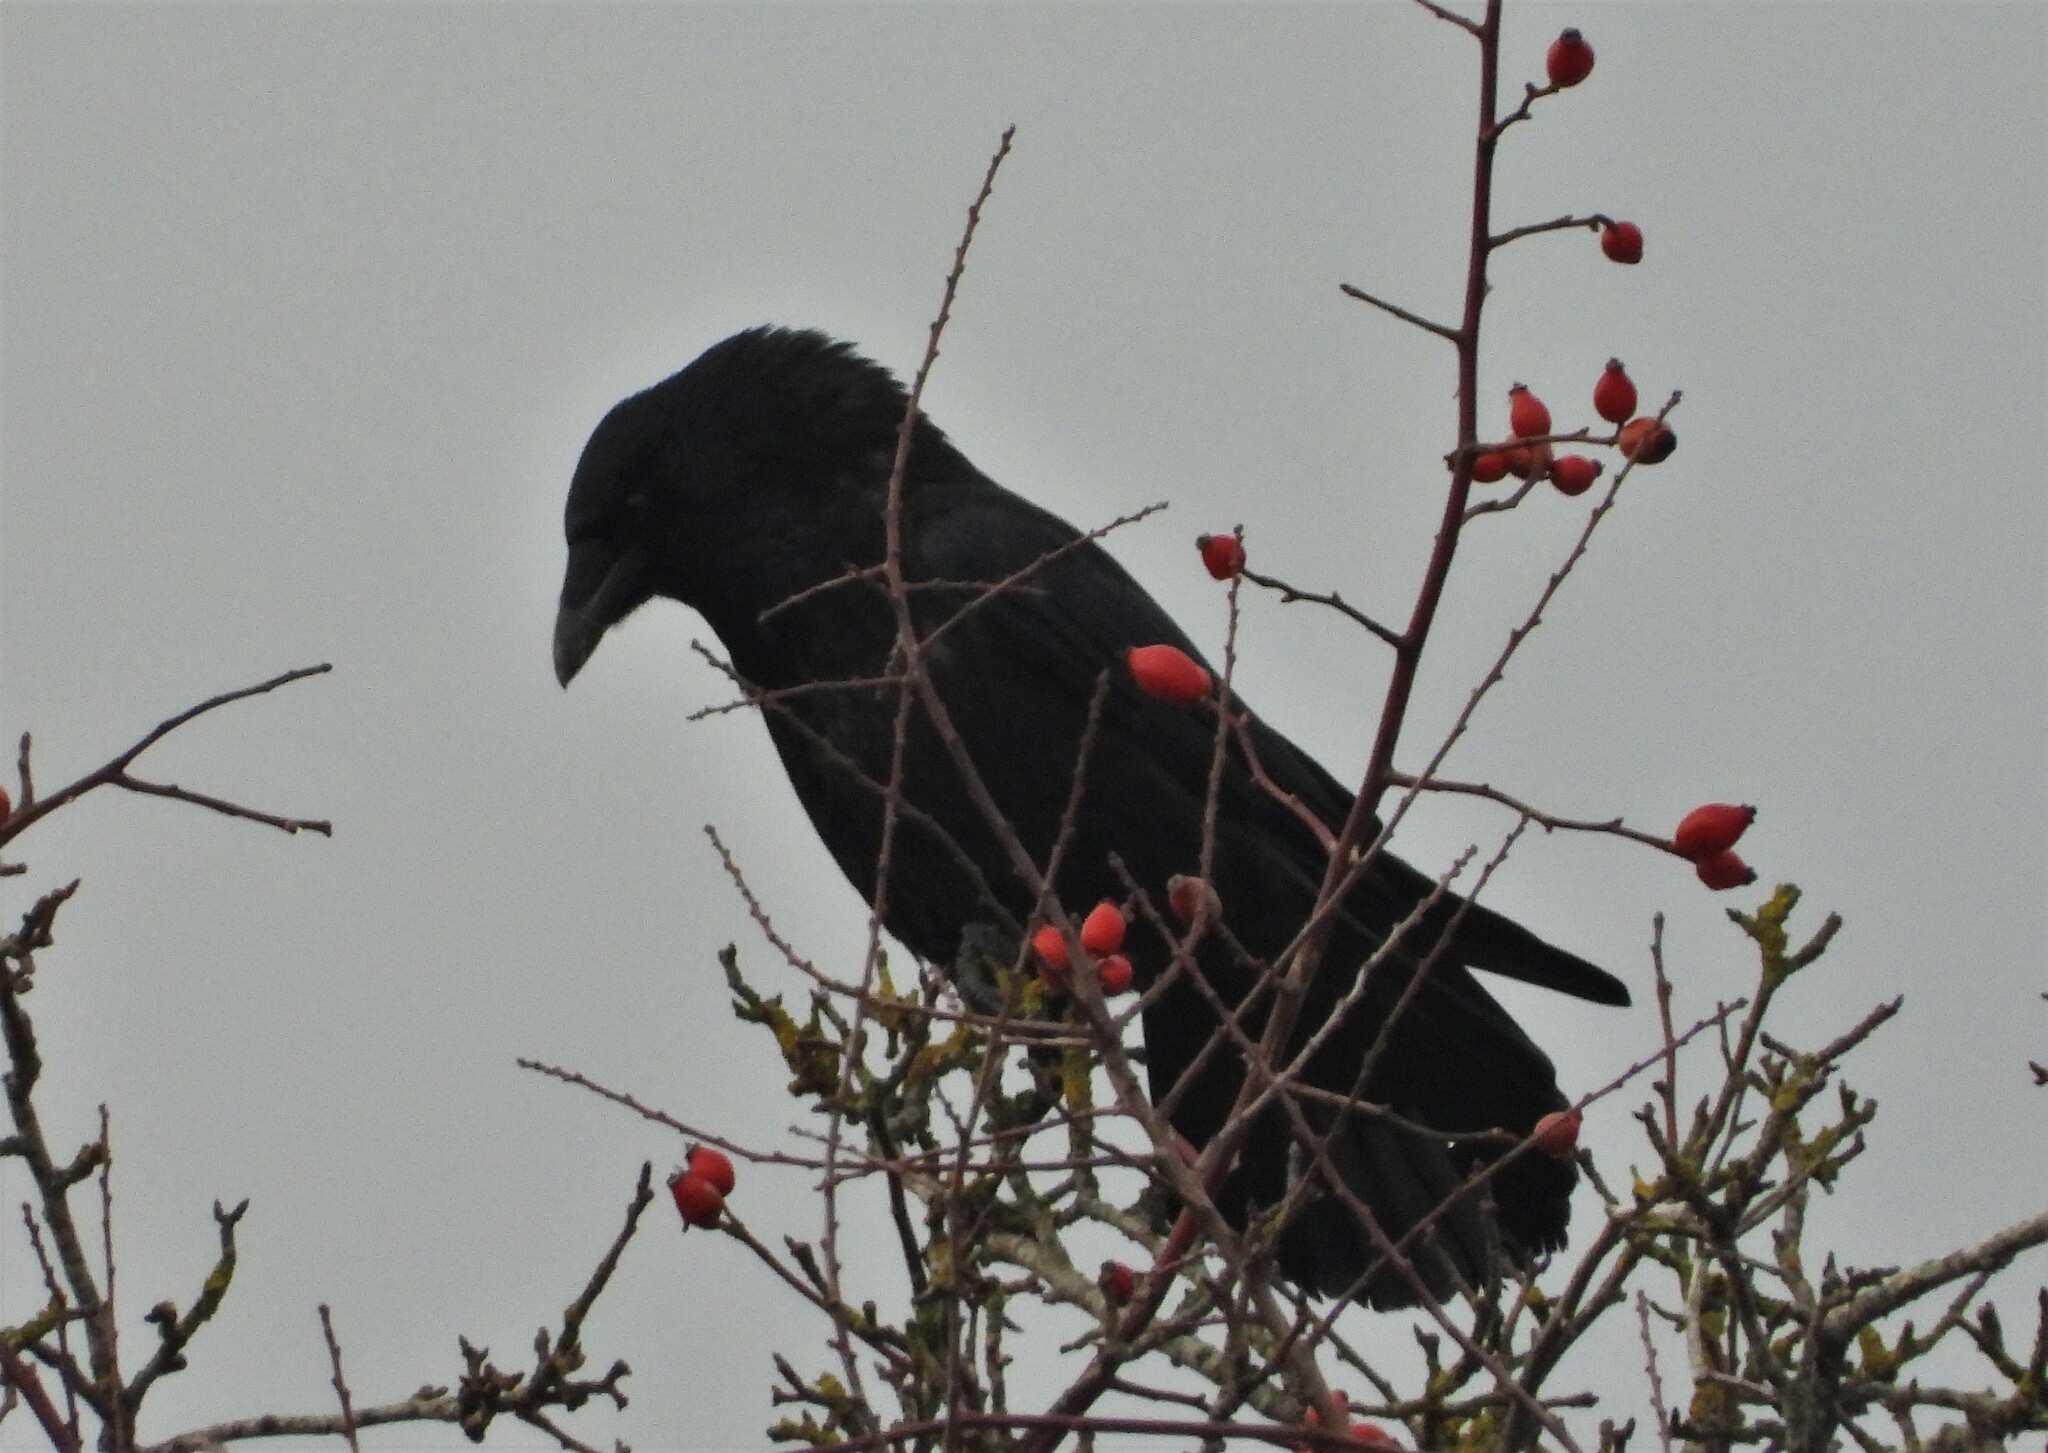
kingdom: Animalia
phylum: Chordata
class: Aves
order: Passeriformes
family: Corvidae
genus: Corvus
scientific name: Corvus corone
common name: Carrion crow
